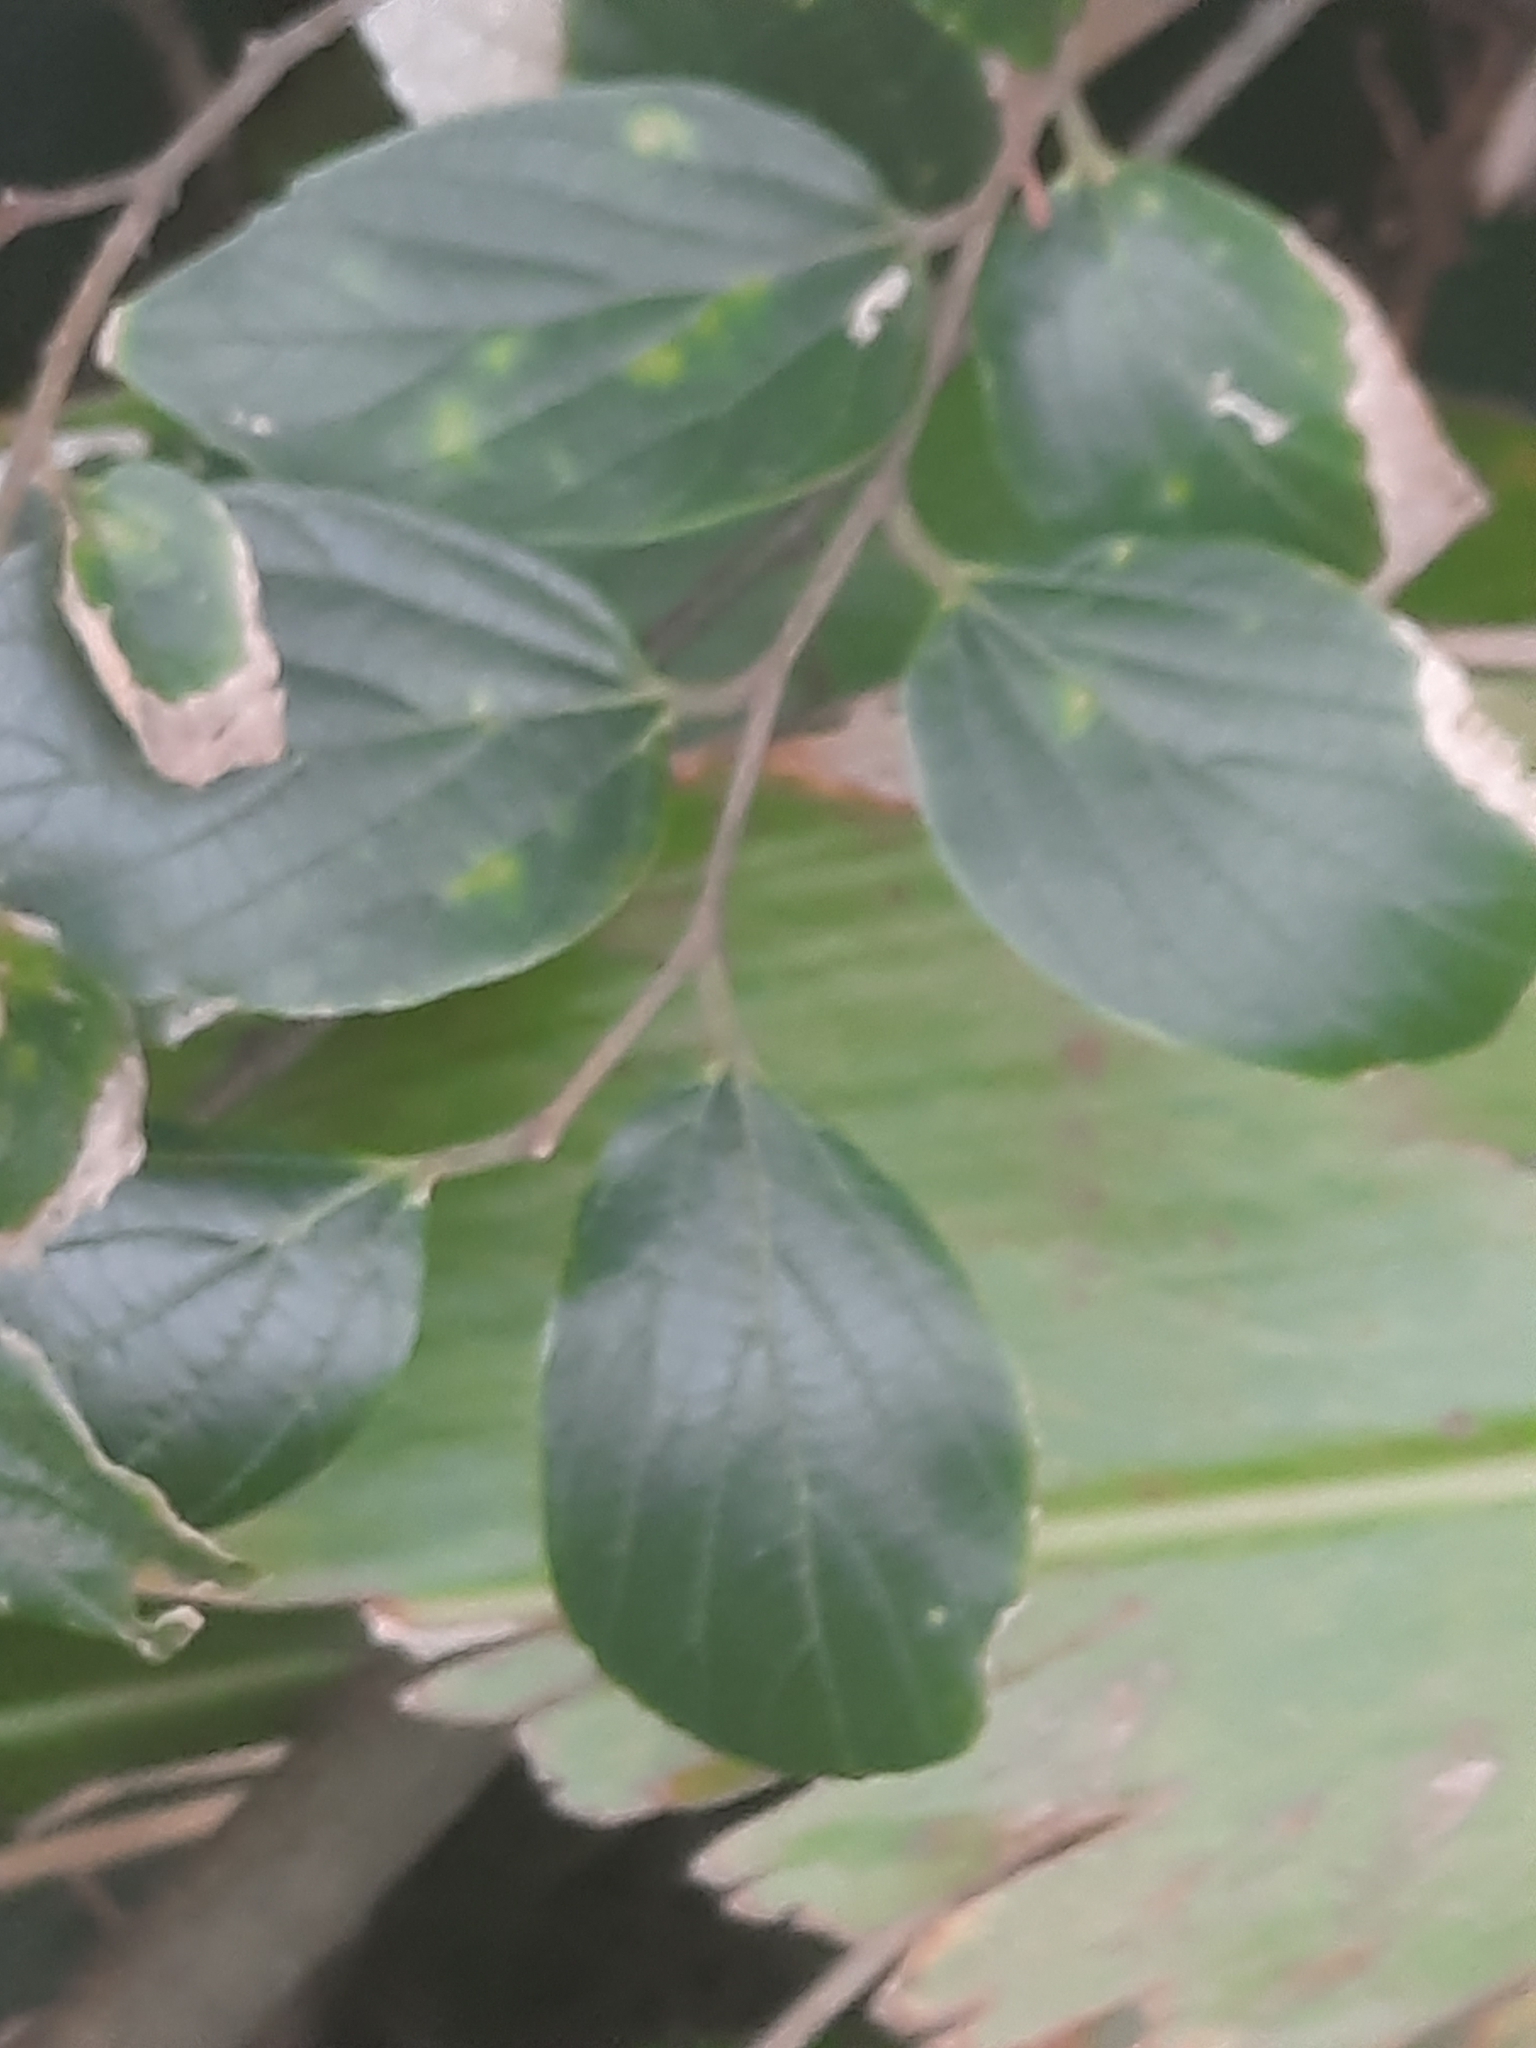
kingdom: Plantae
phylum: Tracheophyta
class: Magnoliopsida
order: Rosales
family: Cannabaceae
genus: Celtis
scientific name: Celtis sinensis
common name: Chinese hackberry
